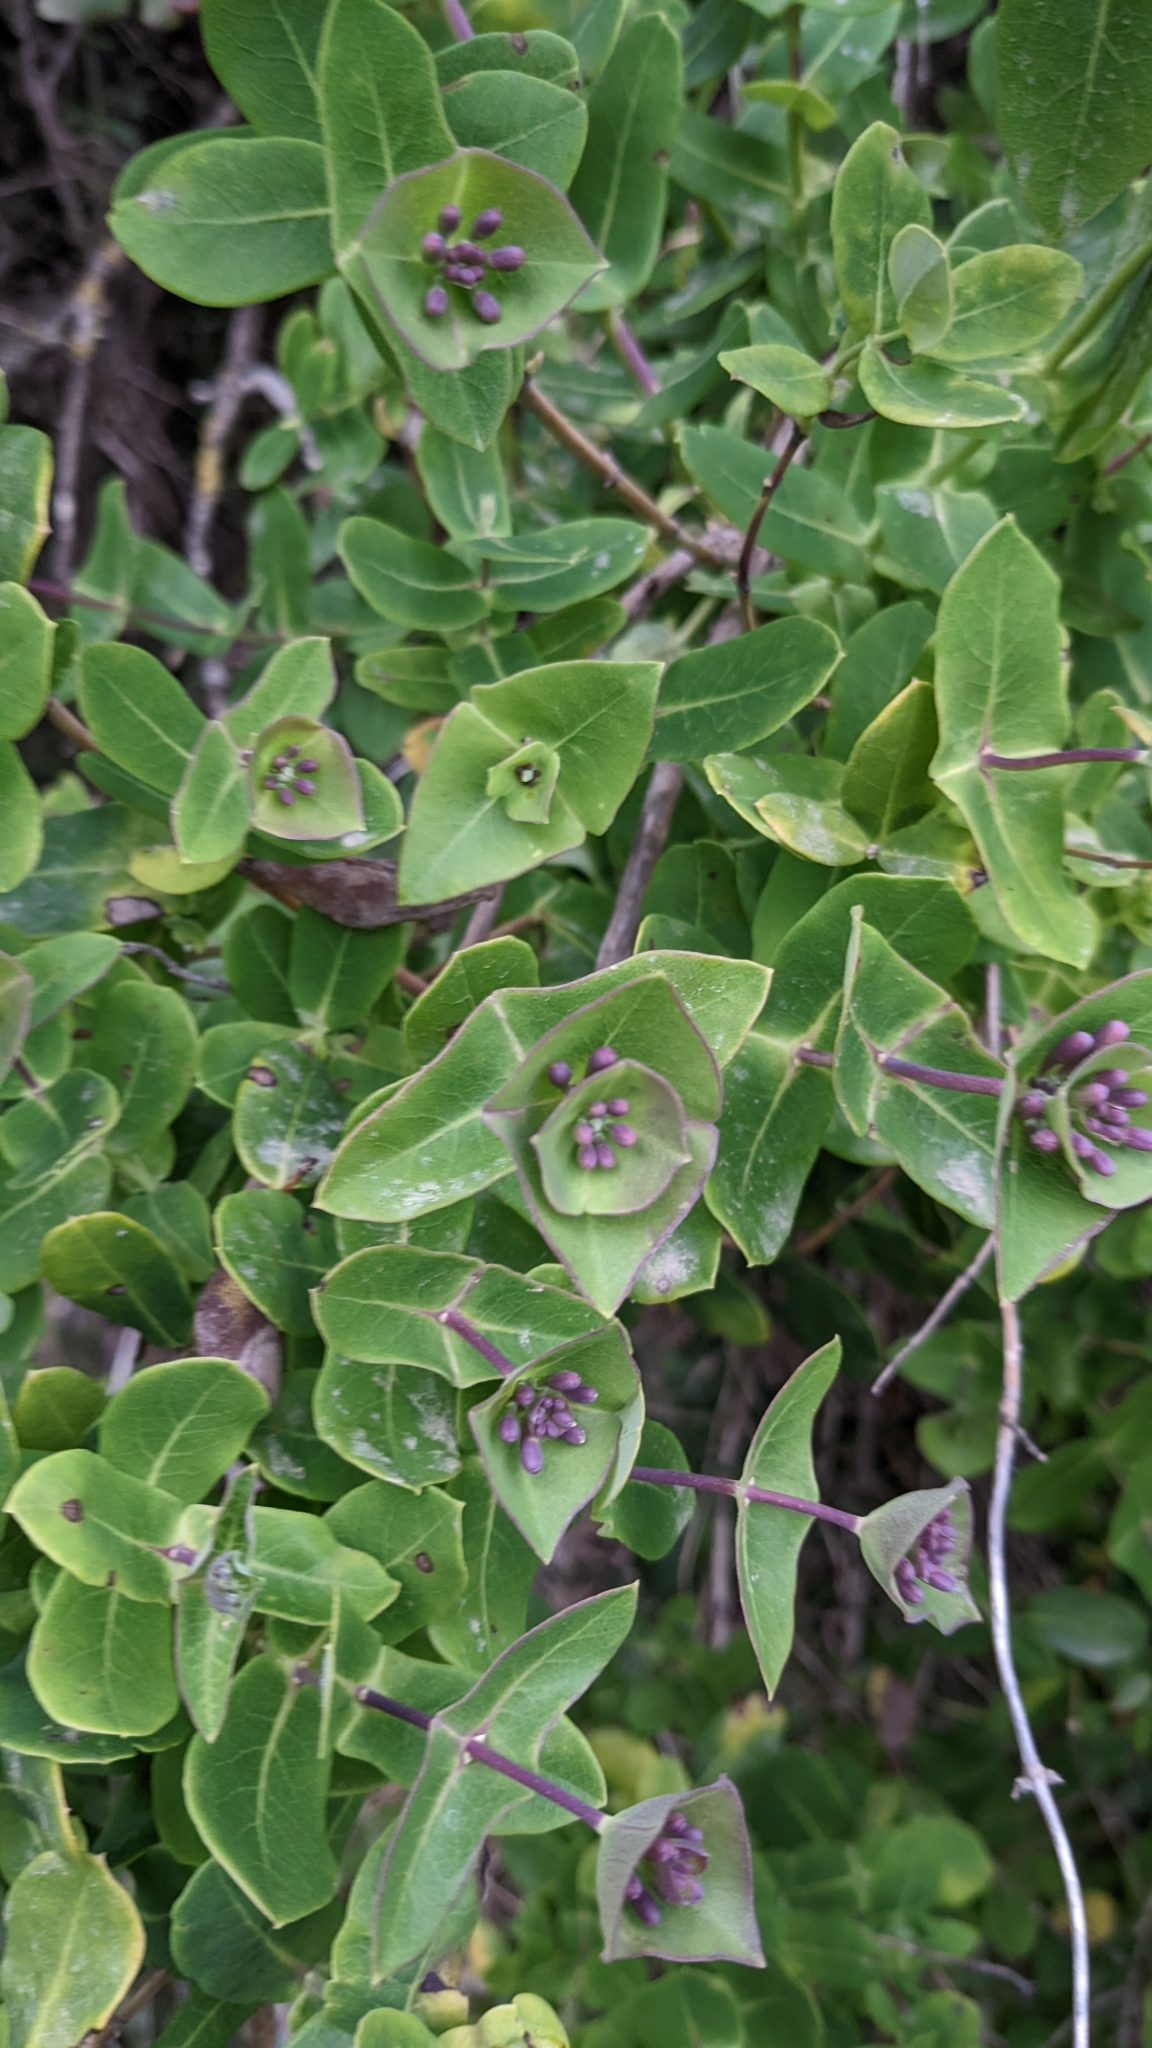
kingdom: Plantae
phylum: Tracheophyta
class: Magnoliopsida
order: Dipsacales
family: Caprifoliaceae
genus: Lonicera
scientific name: Lonicera implexa
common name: Minorca honeysuckle
